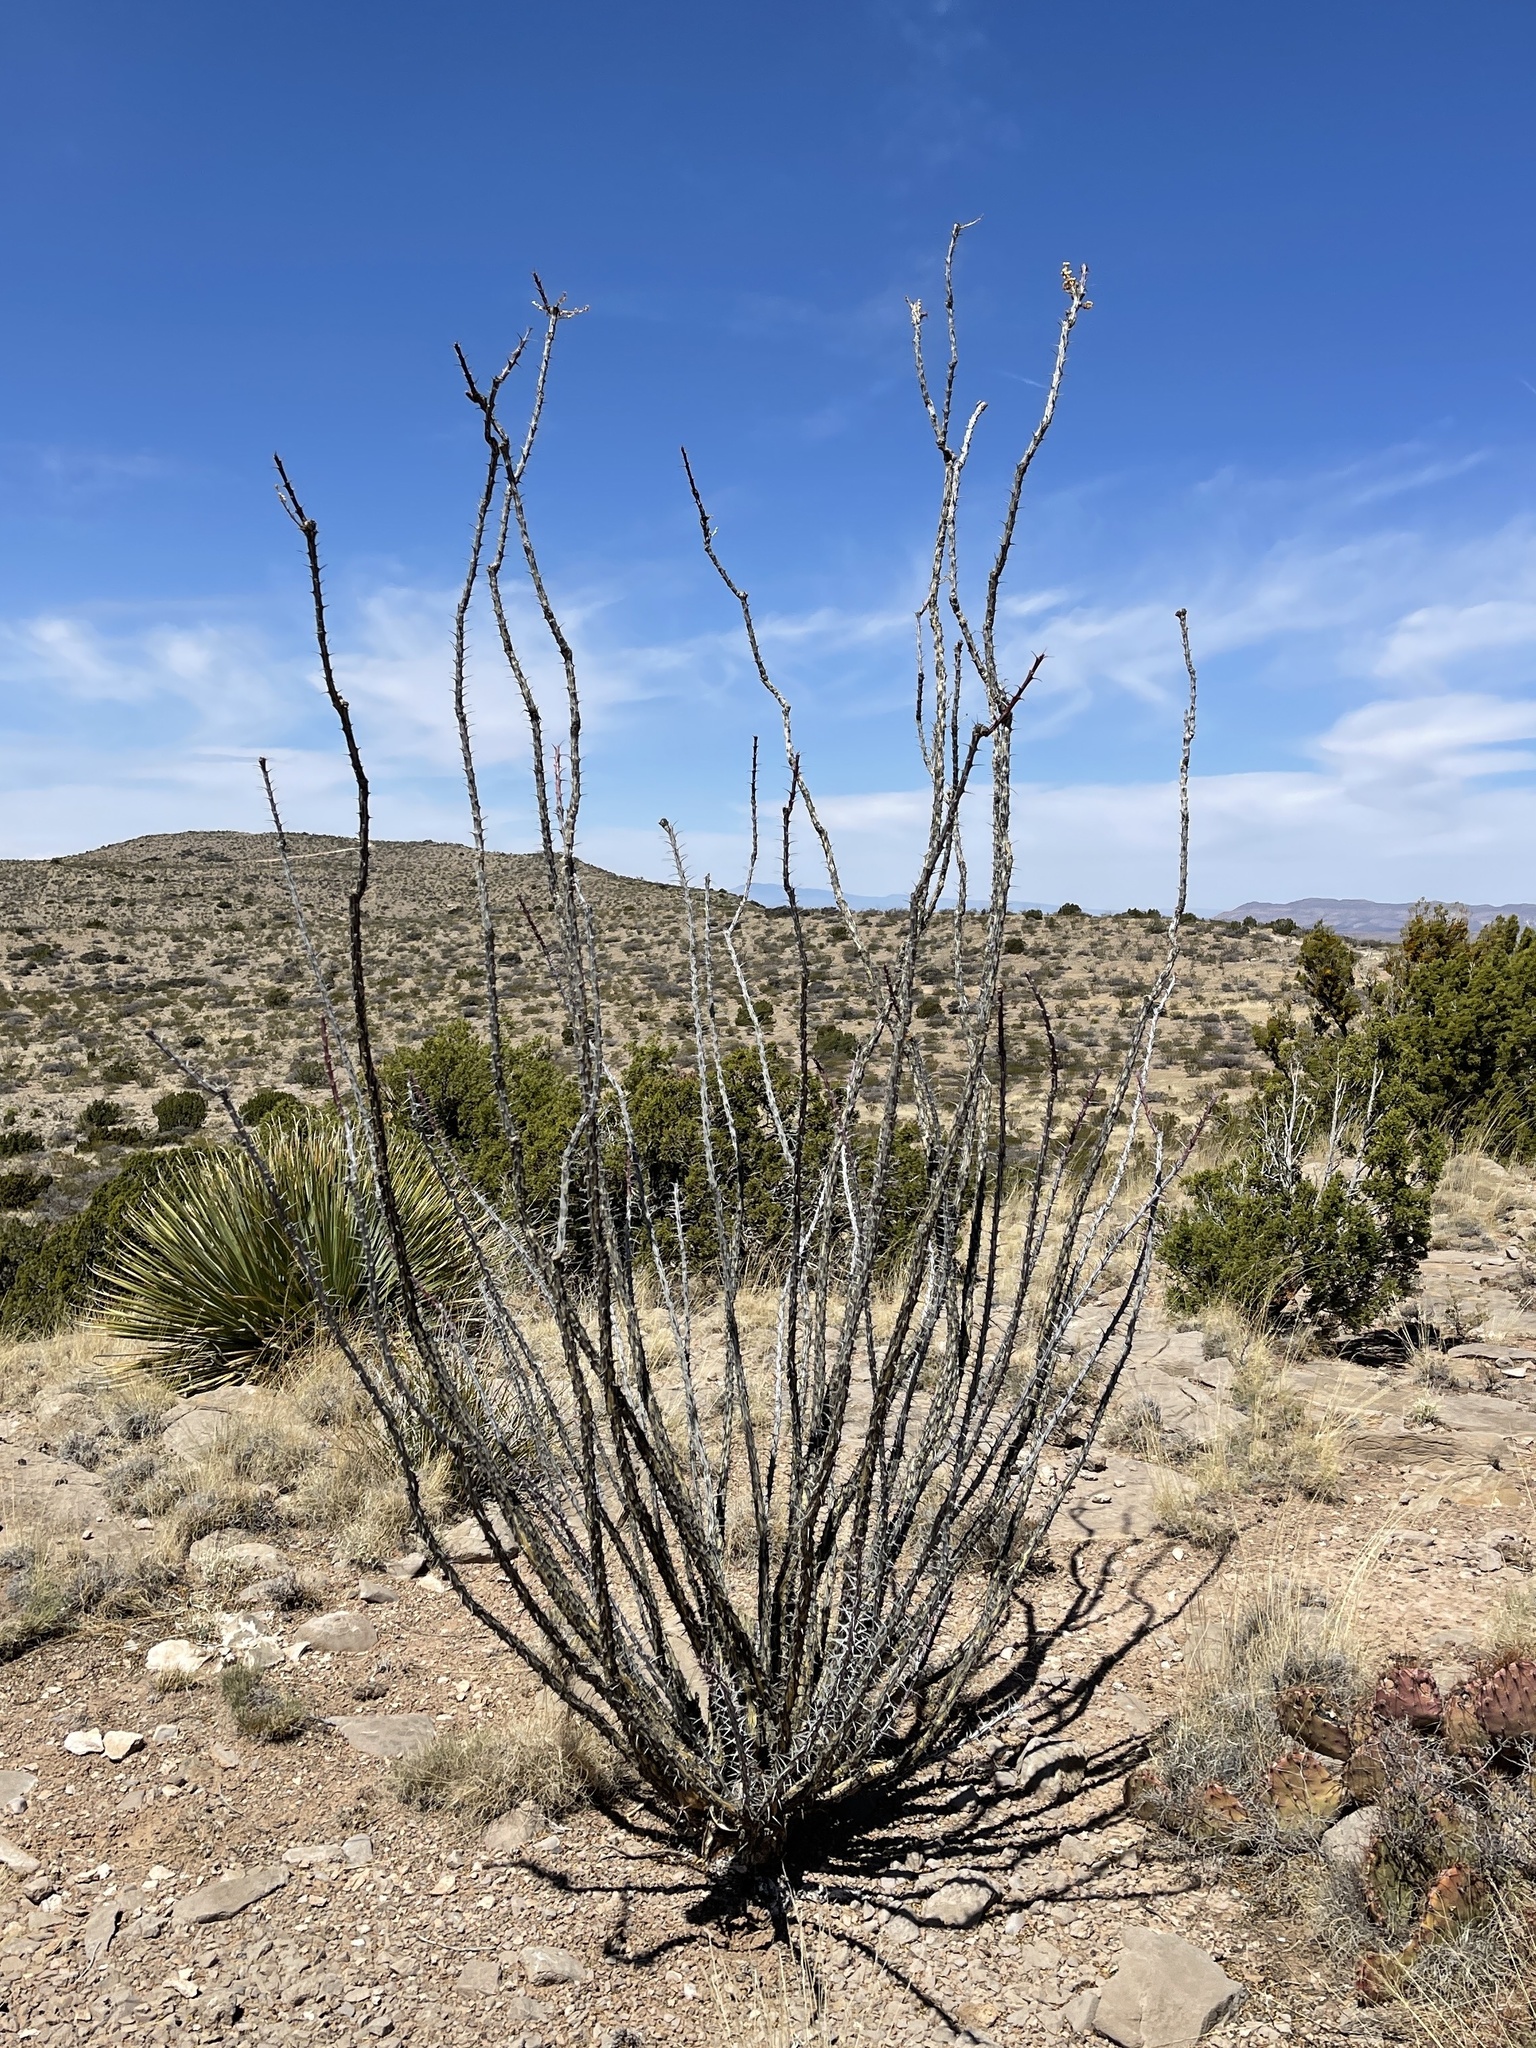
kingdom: Plantae
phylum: Tracheophyta
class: Magnoliopsida
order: Ericales
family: Fouquieriaceae
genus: Fouquieria
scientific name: Fouquieria splendens
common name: Vine-cactus
